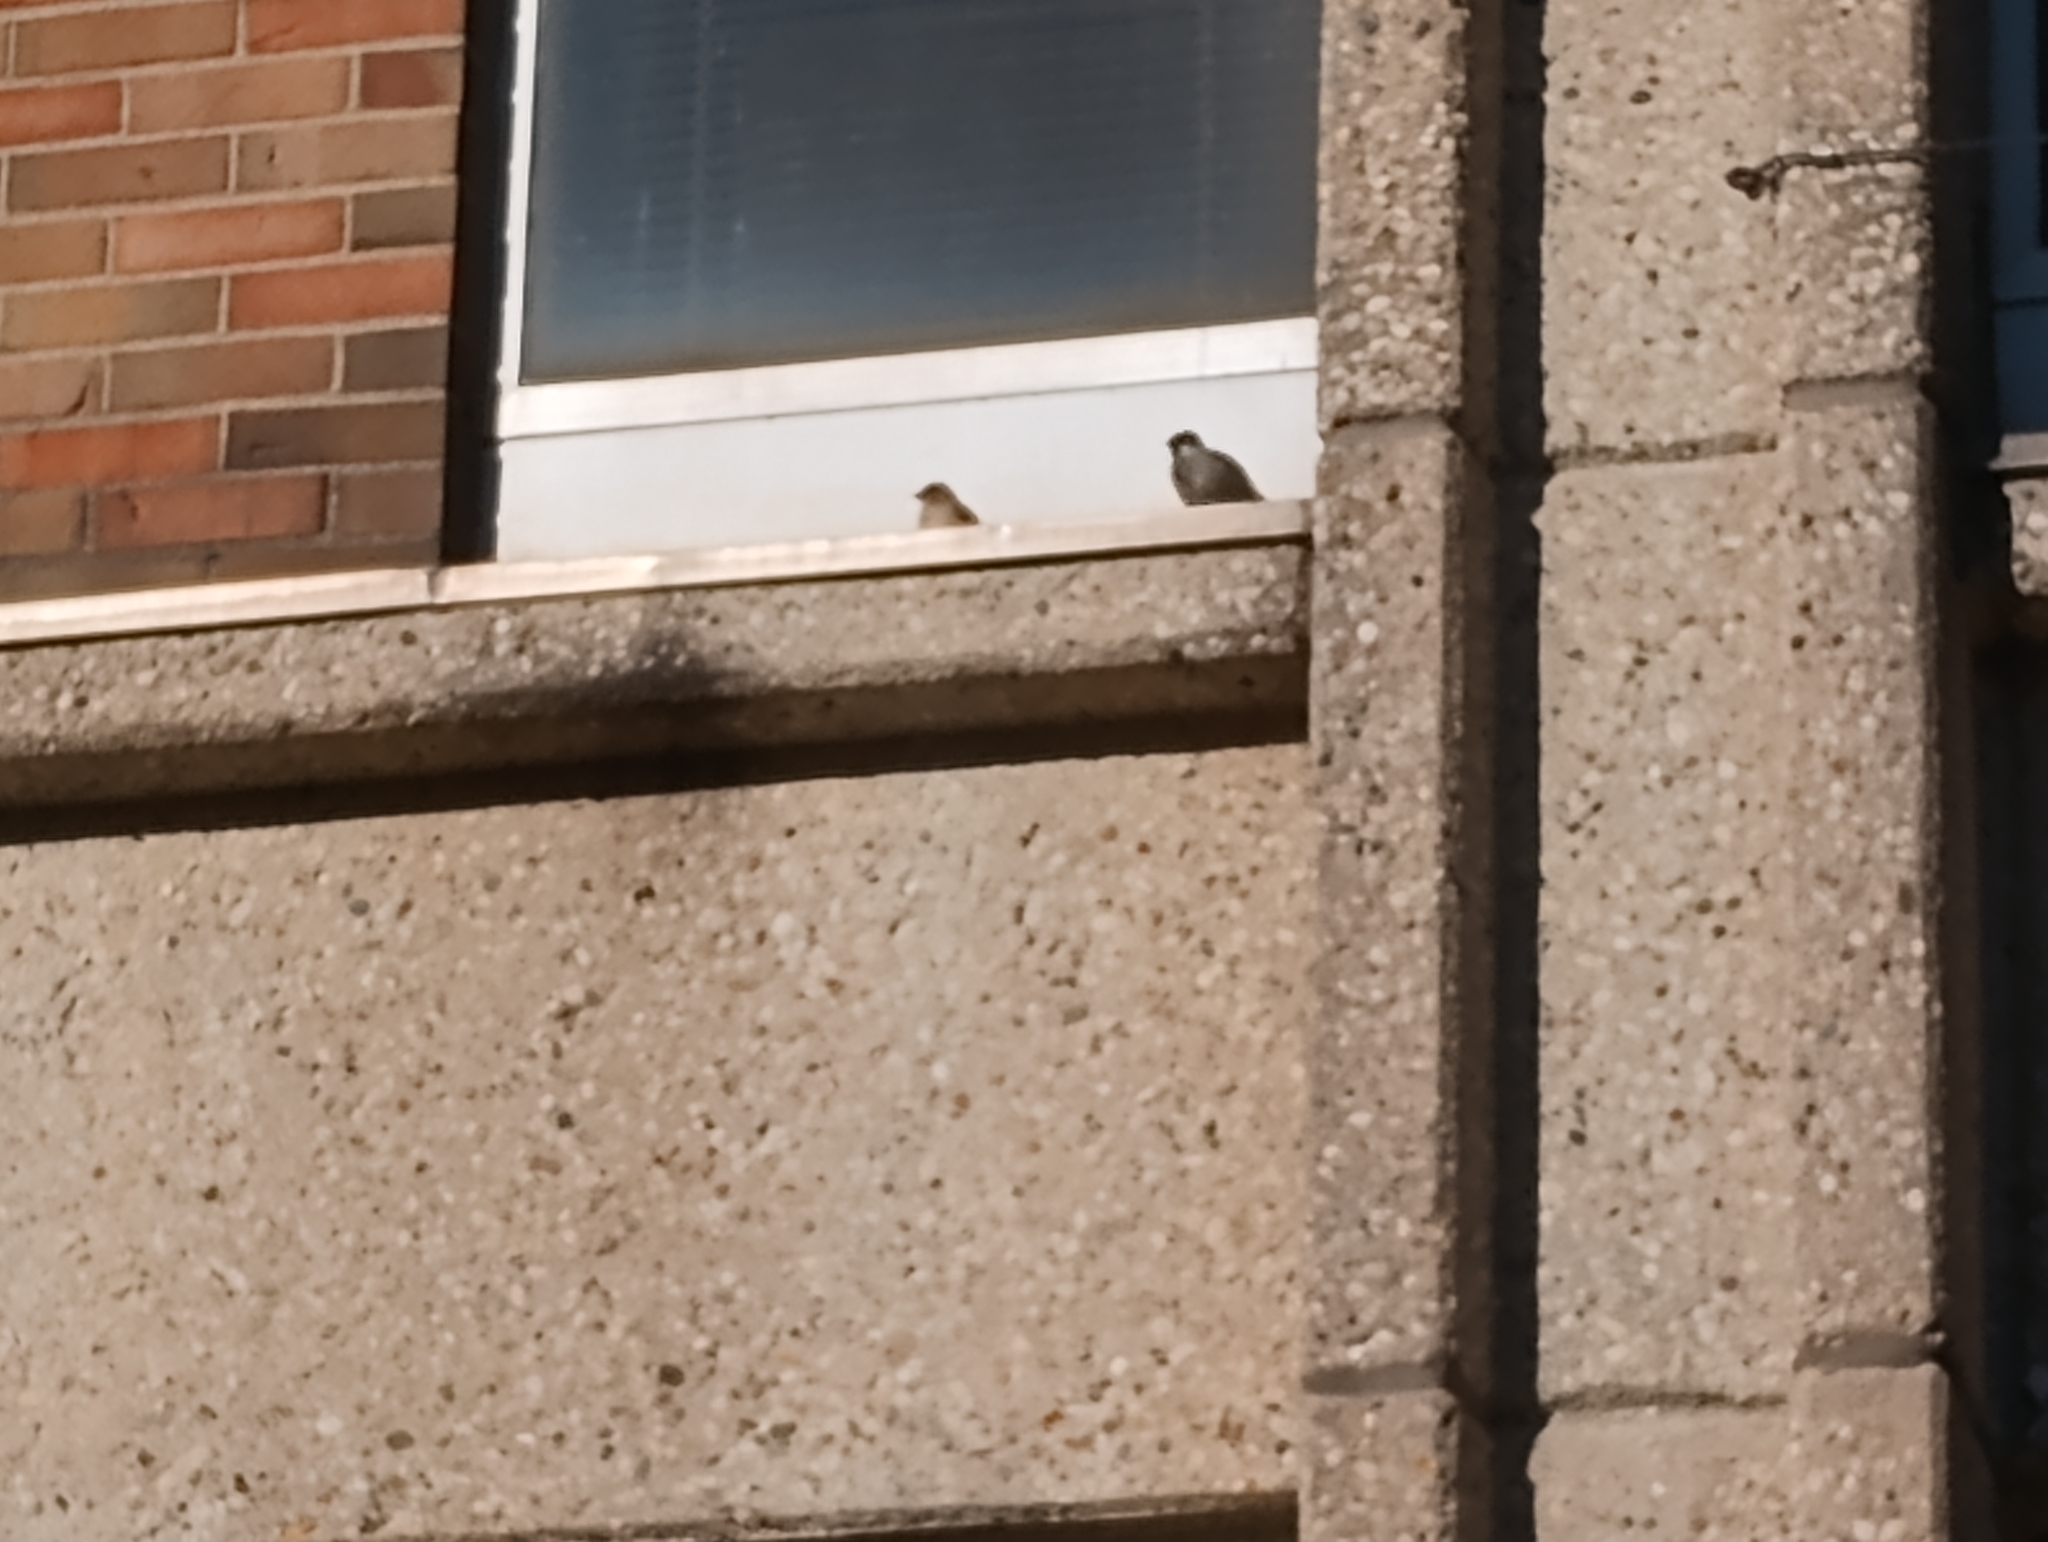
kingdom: Animalia
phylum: Chordata
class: Aves
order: Passeriformes
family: Passeridae
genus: Passer
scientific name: Passer domesticus
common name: House sparrow
